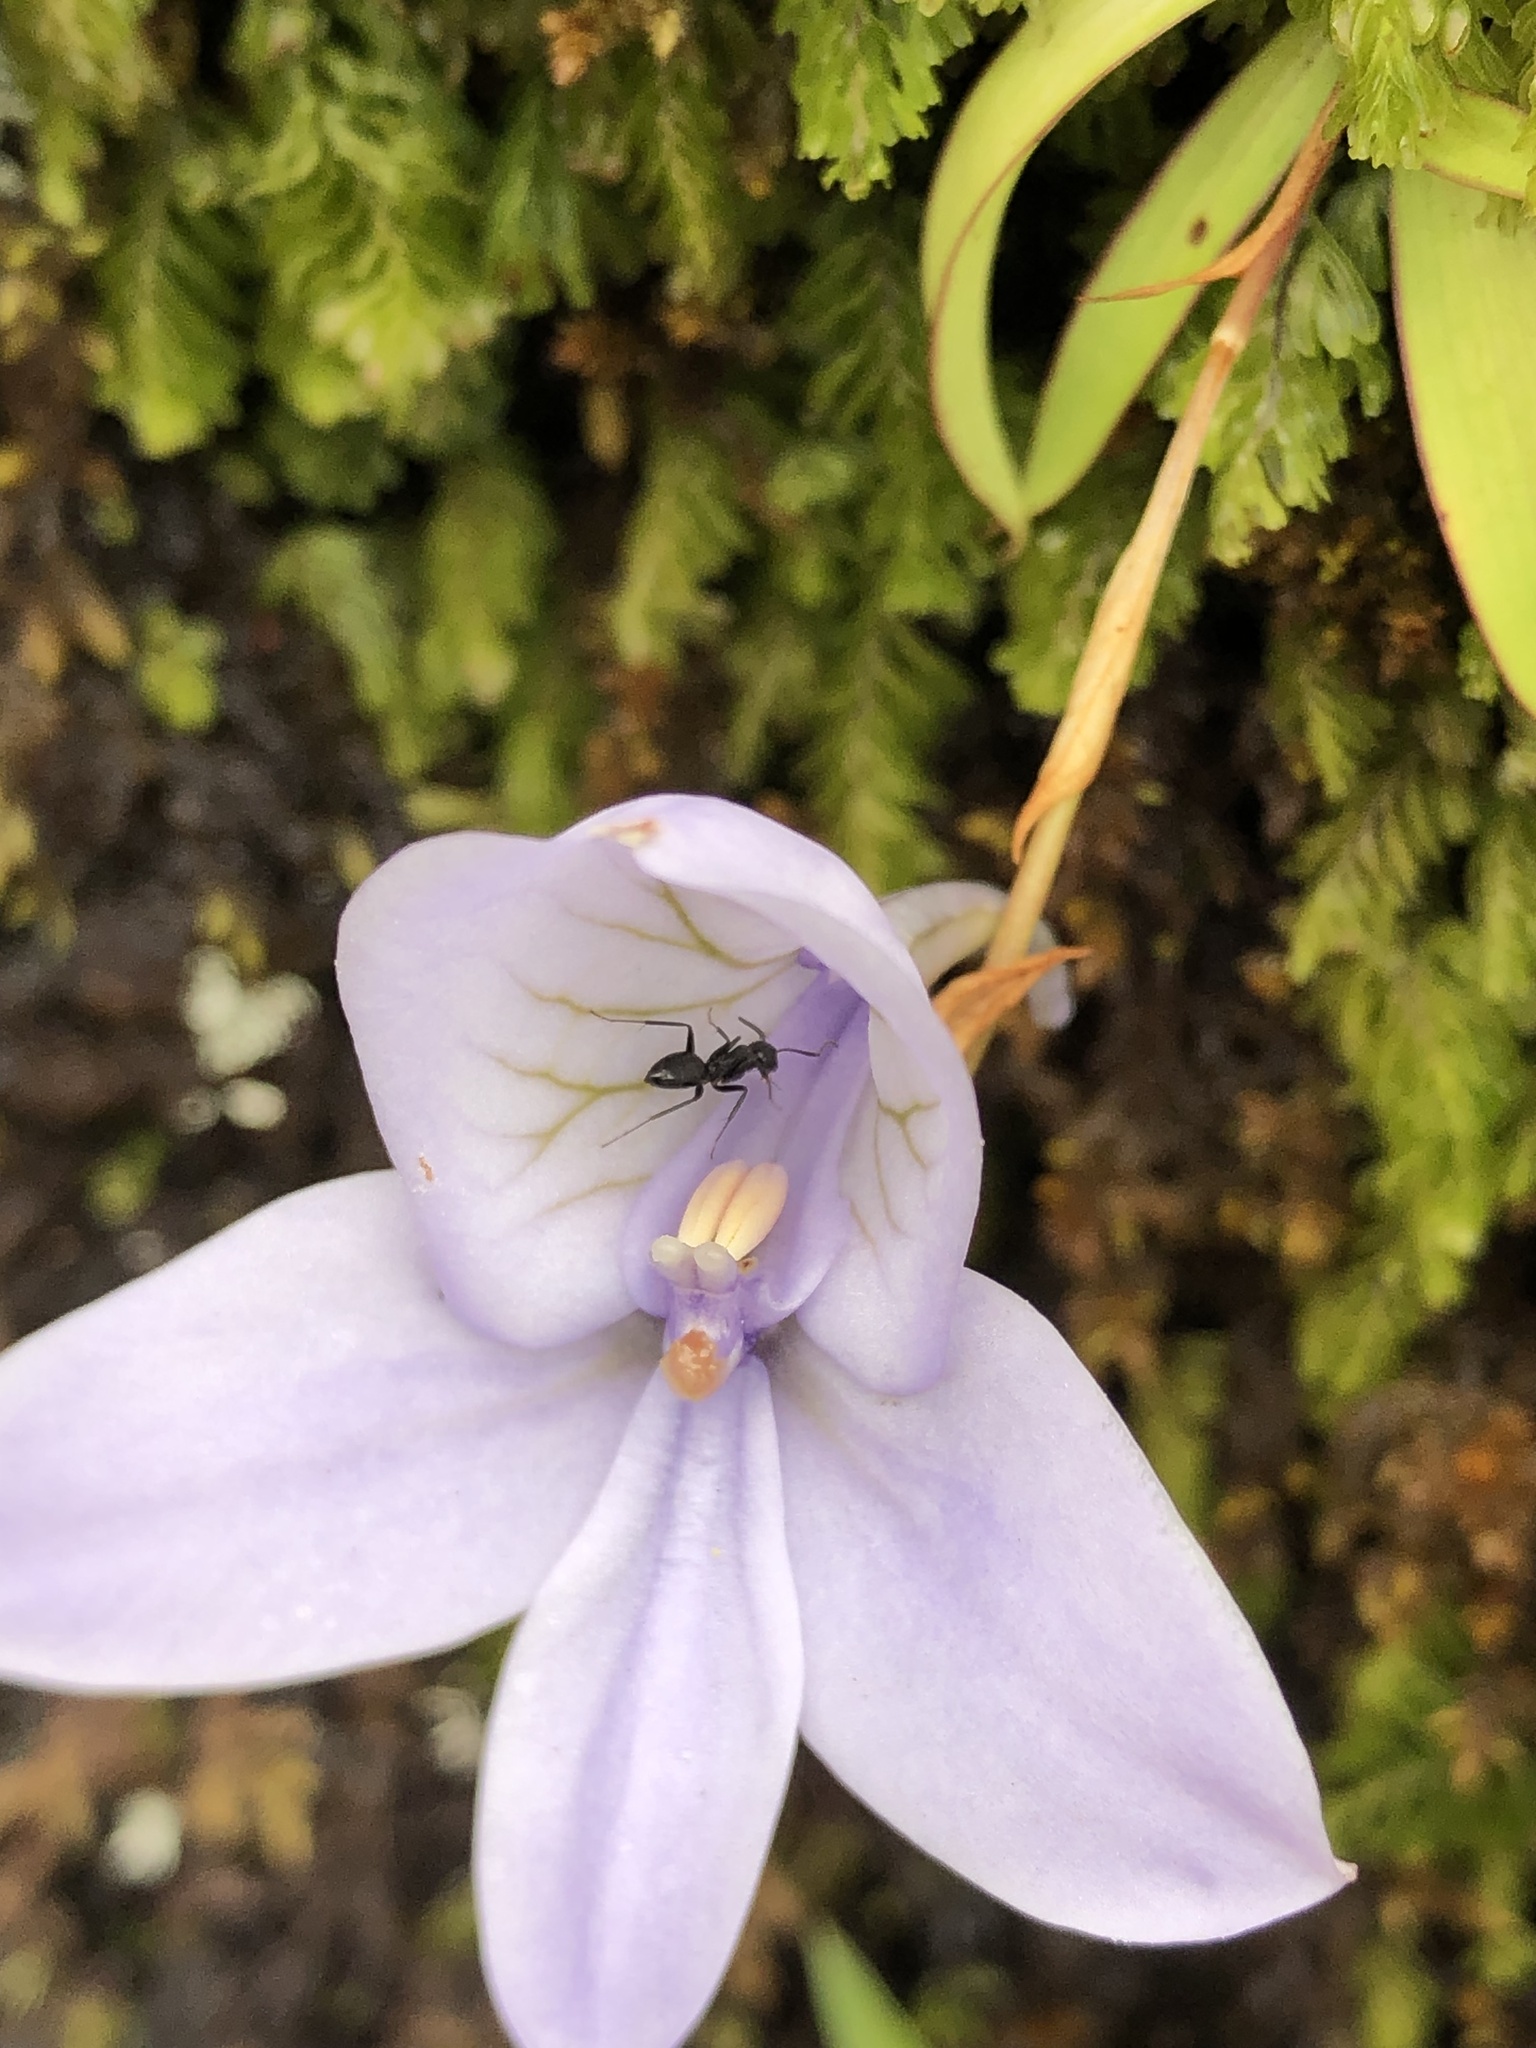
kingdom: Plantae
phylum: Tracheophyta
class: Liliopsida
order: Asparagales
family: Orchidaceae
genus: Disa
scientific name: Disa longicornu
